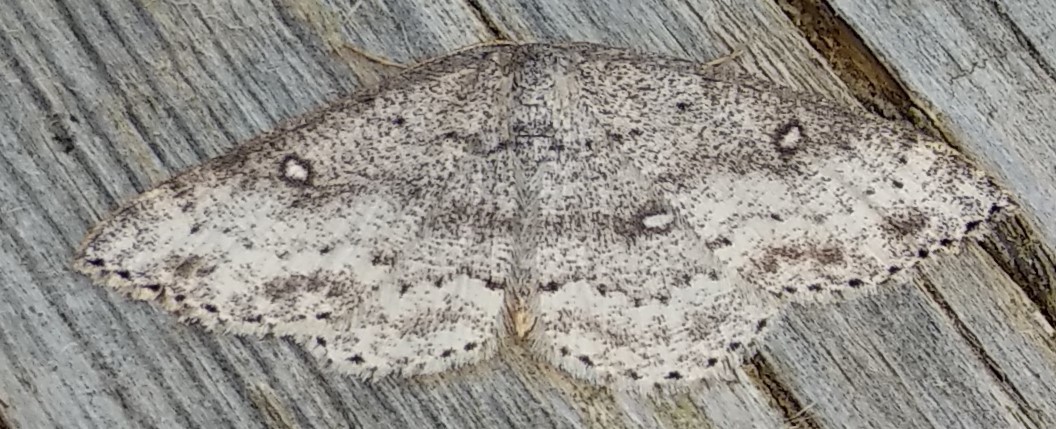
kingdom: Animalia
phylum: Arthropoda
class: Insecta
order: Lepidoptera
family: Geometridae
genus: Cyclophora
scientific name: Cyclophora pendulinaria
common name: Sweet fern geometer
